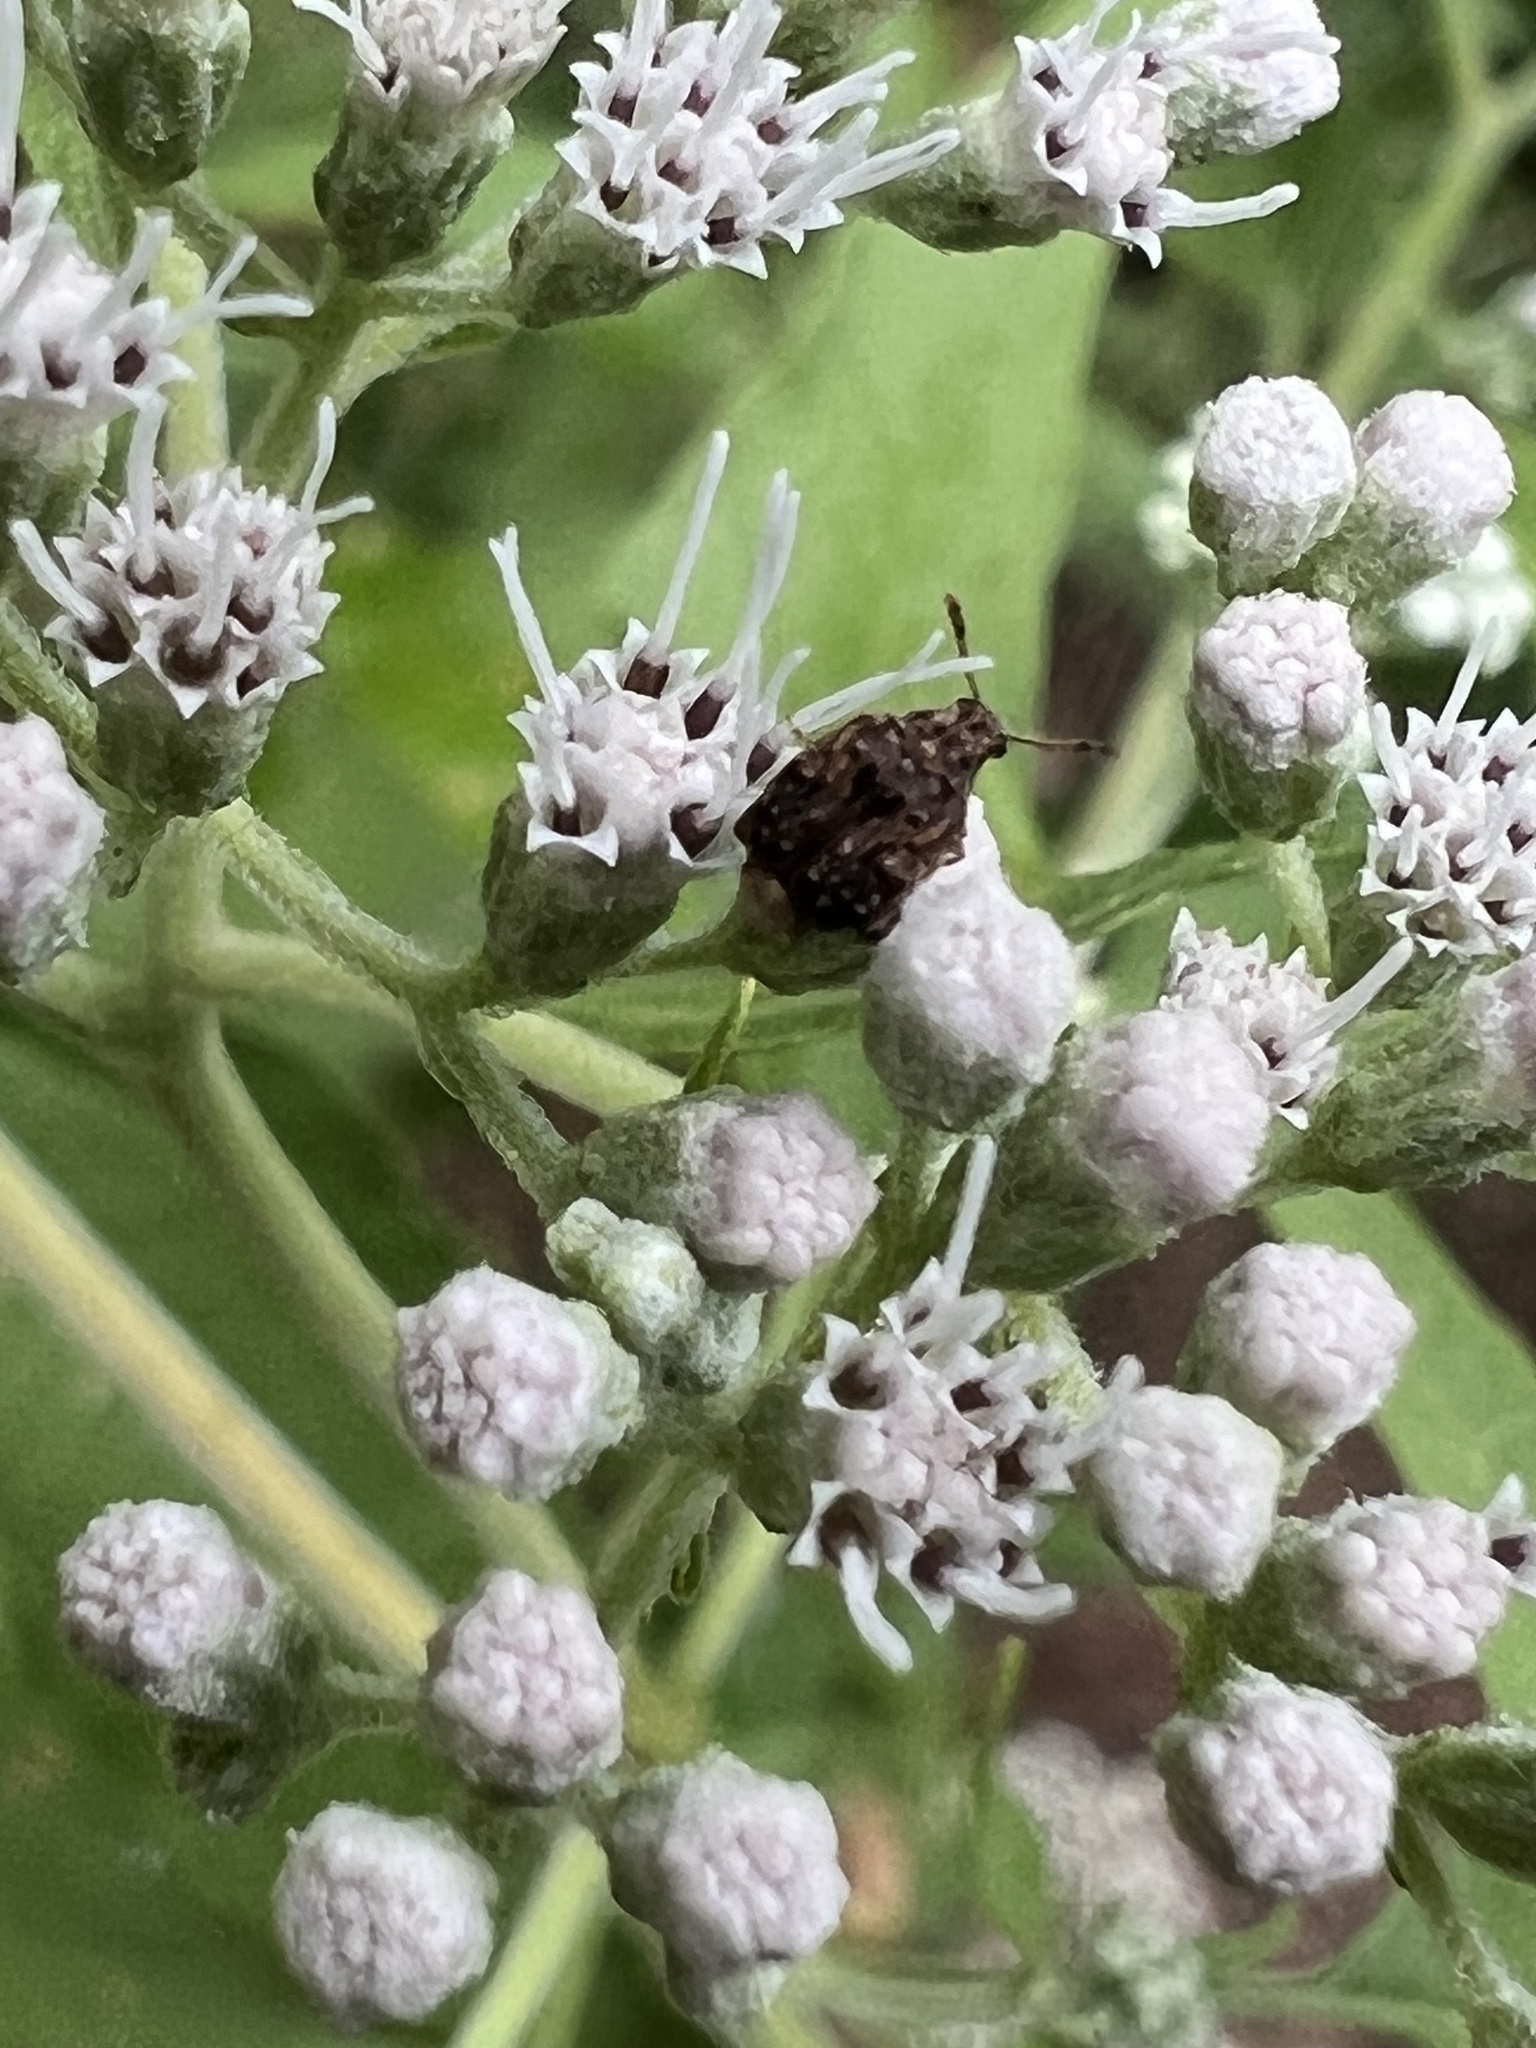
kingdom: Animalia
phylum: Arthropoda
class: Insecta
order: Coleoptera
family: Chrysomelidae
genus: Gibbobruchus
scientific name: Gibbobruchus mimus
